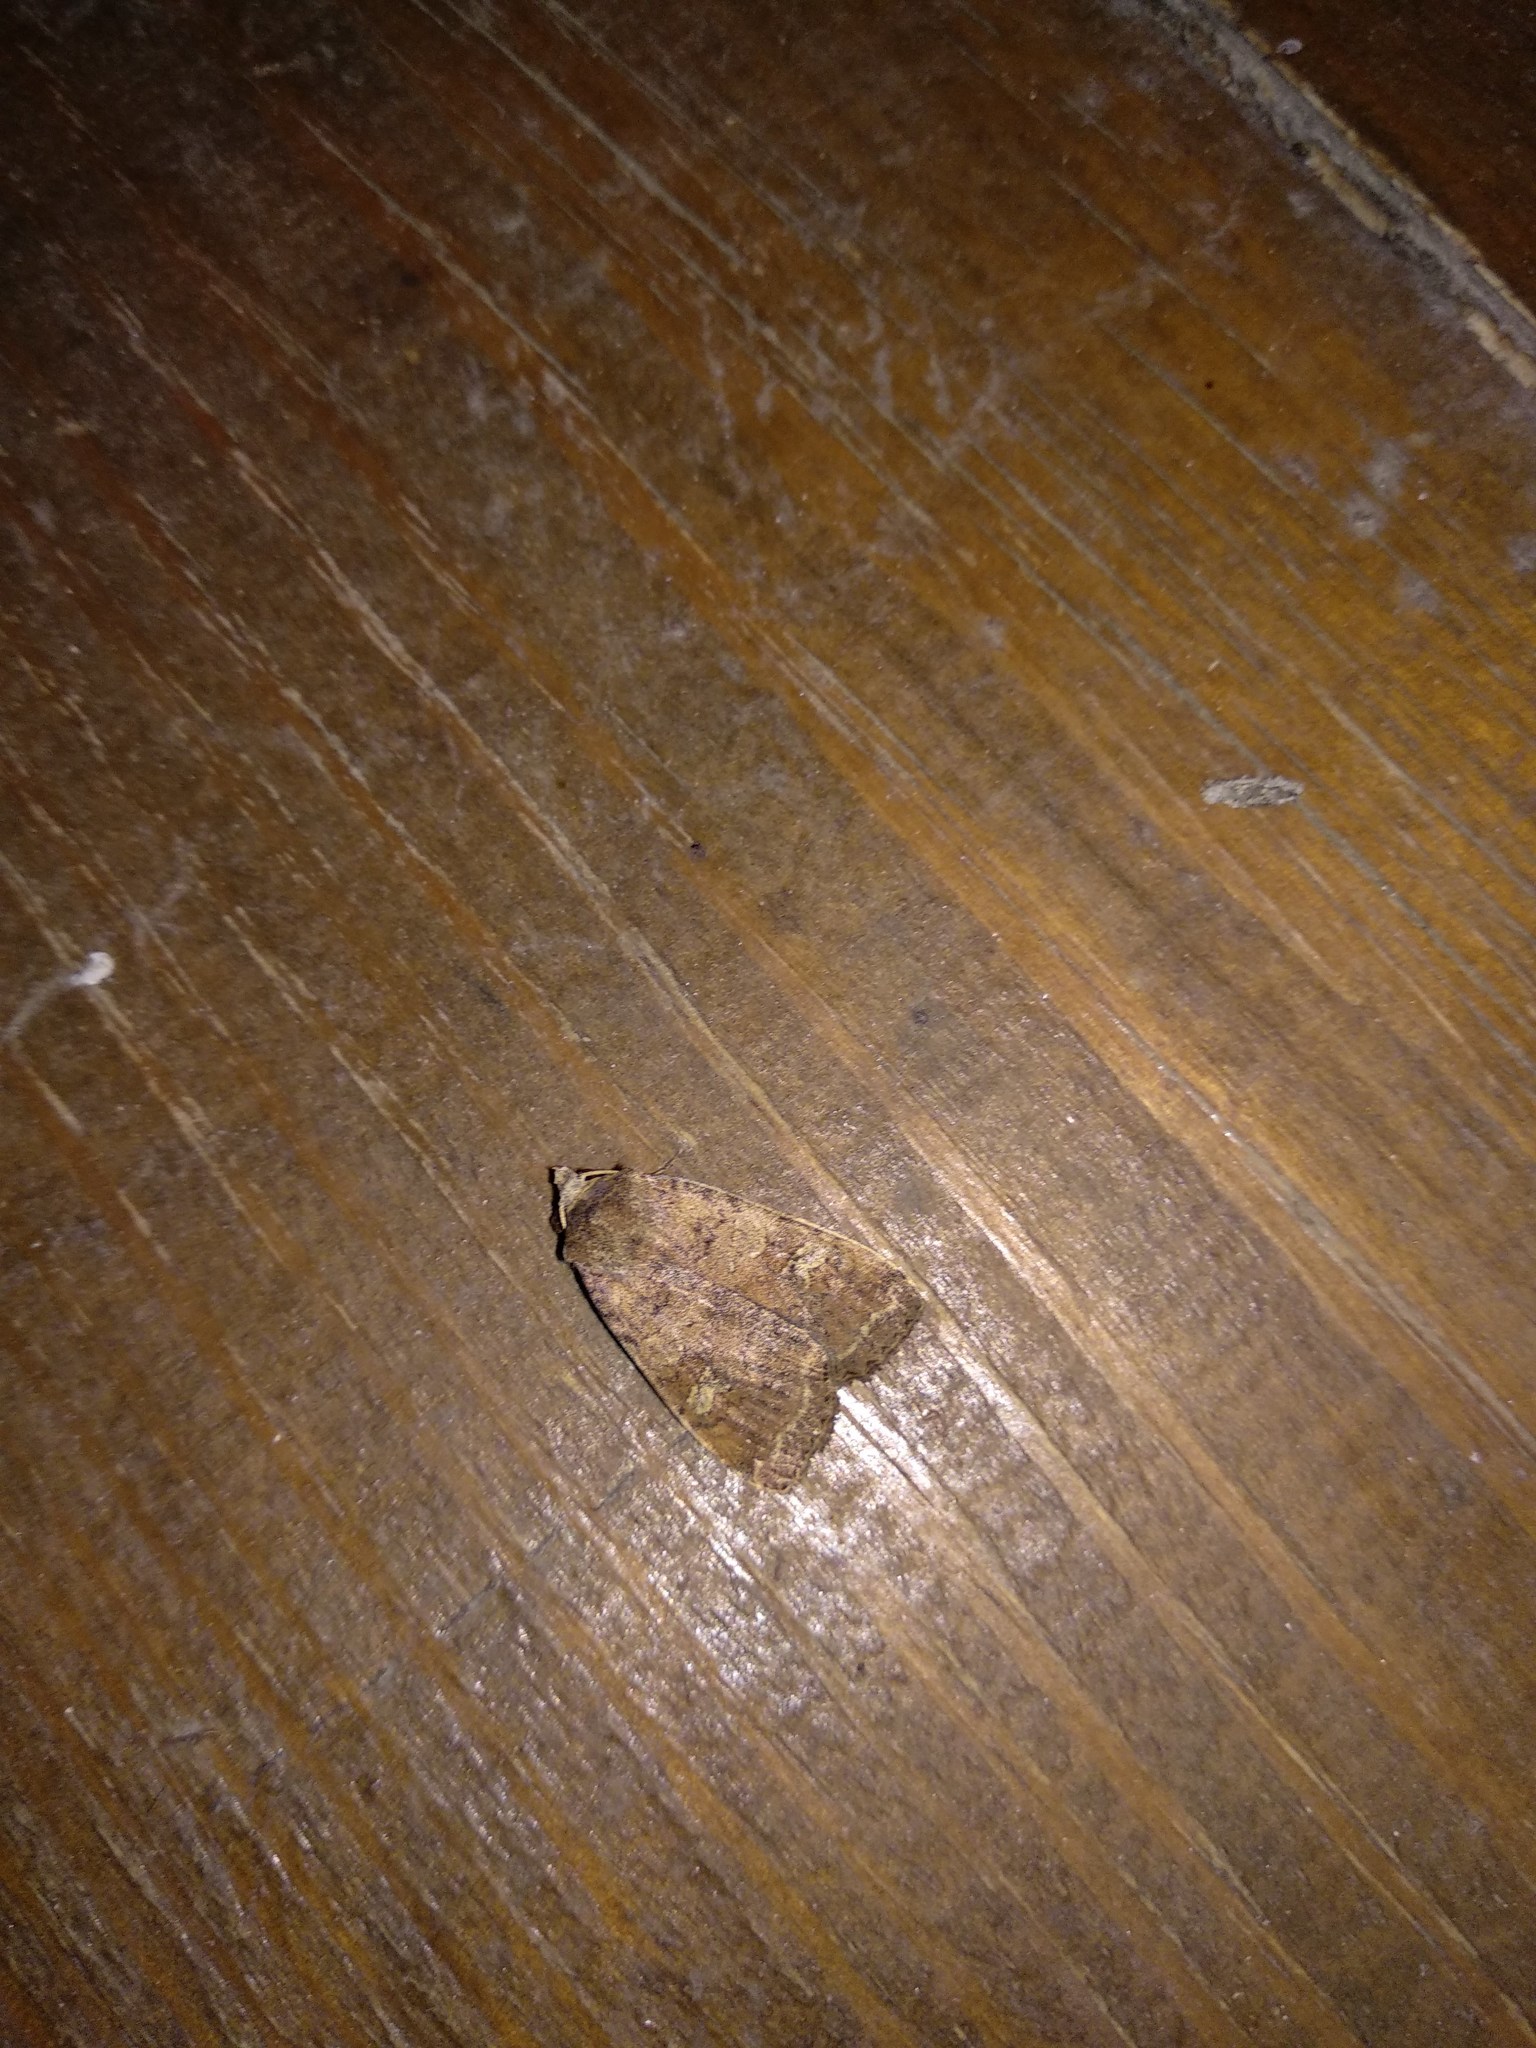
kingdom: Animalia
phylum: Arthropoda
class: Insecta
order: Lepidoptera
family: Noctuidae
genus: Diarsia
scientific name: Diarsia dahlii
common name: Barred chestnut
